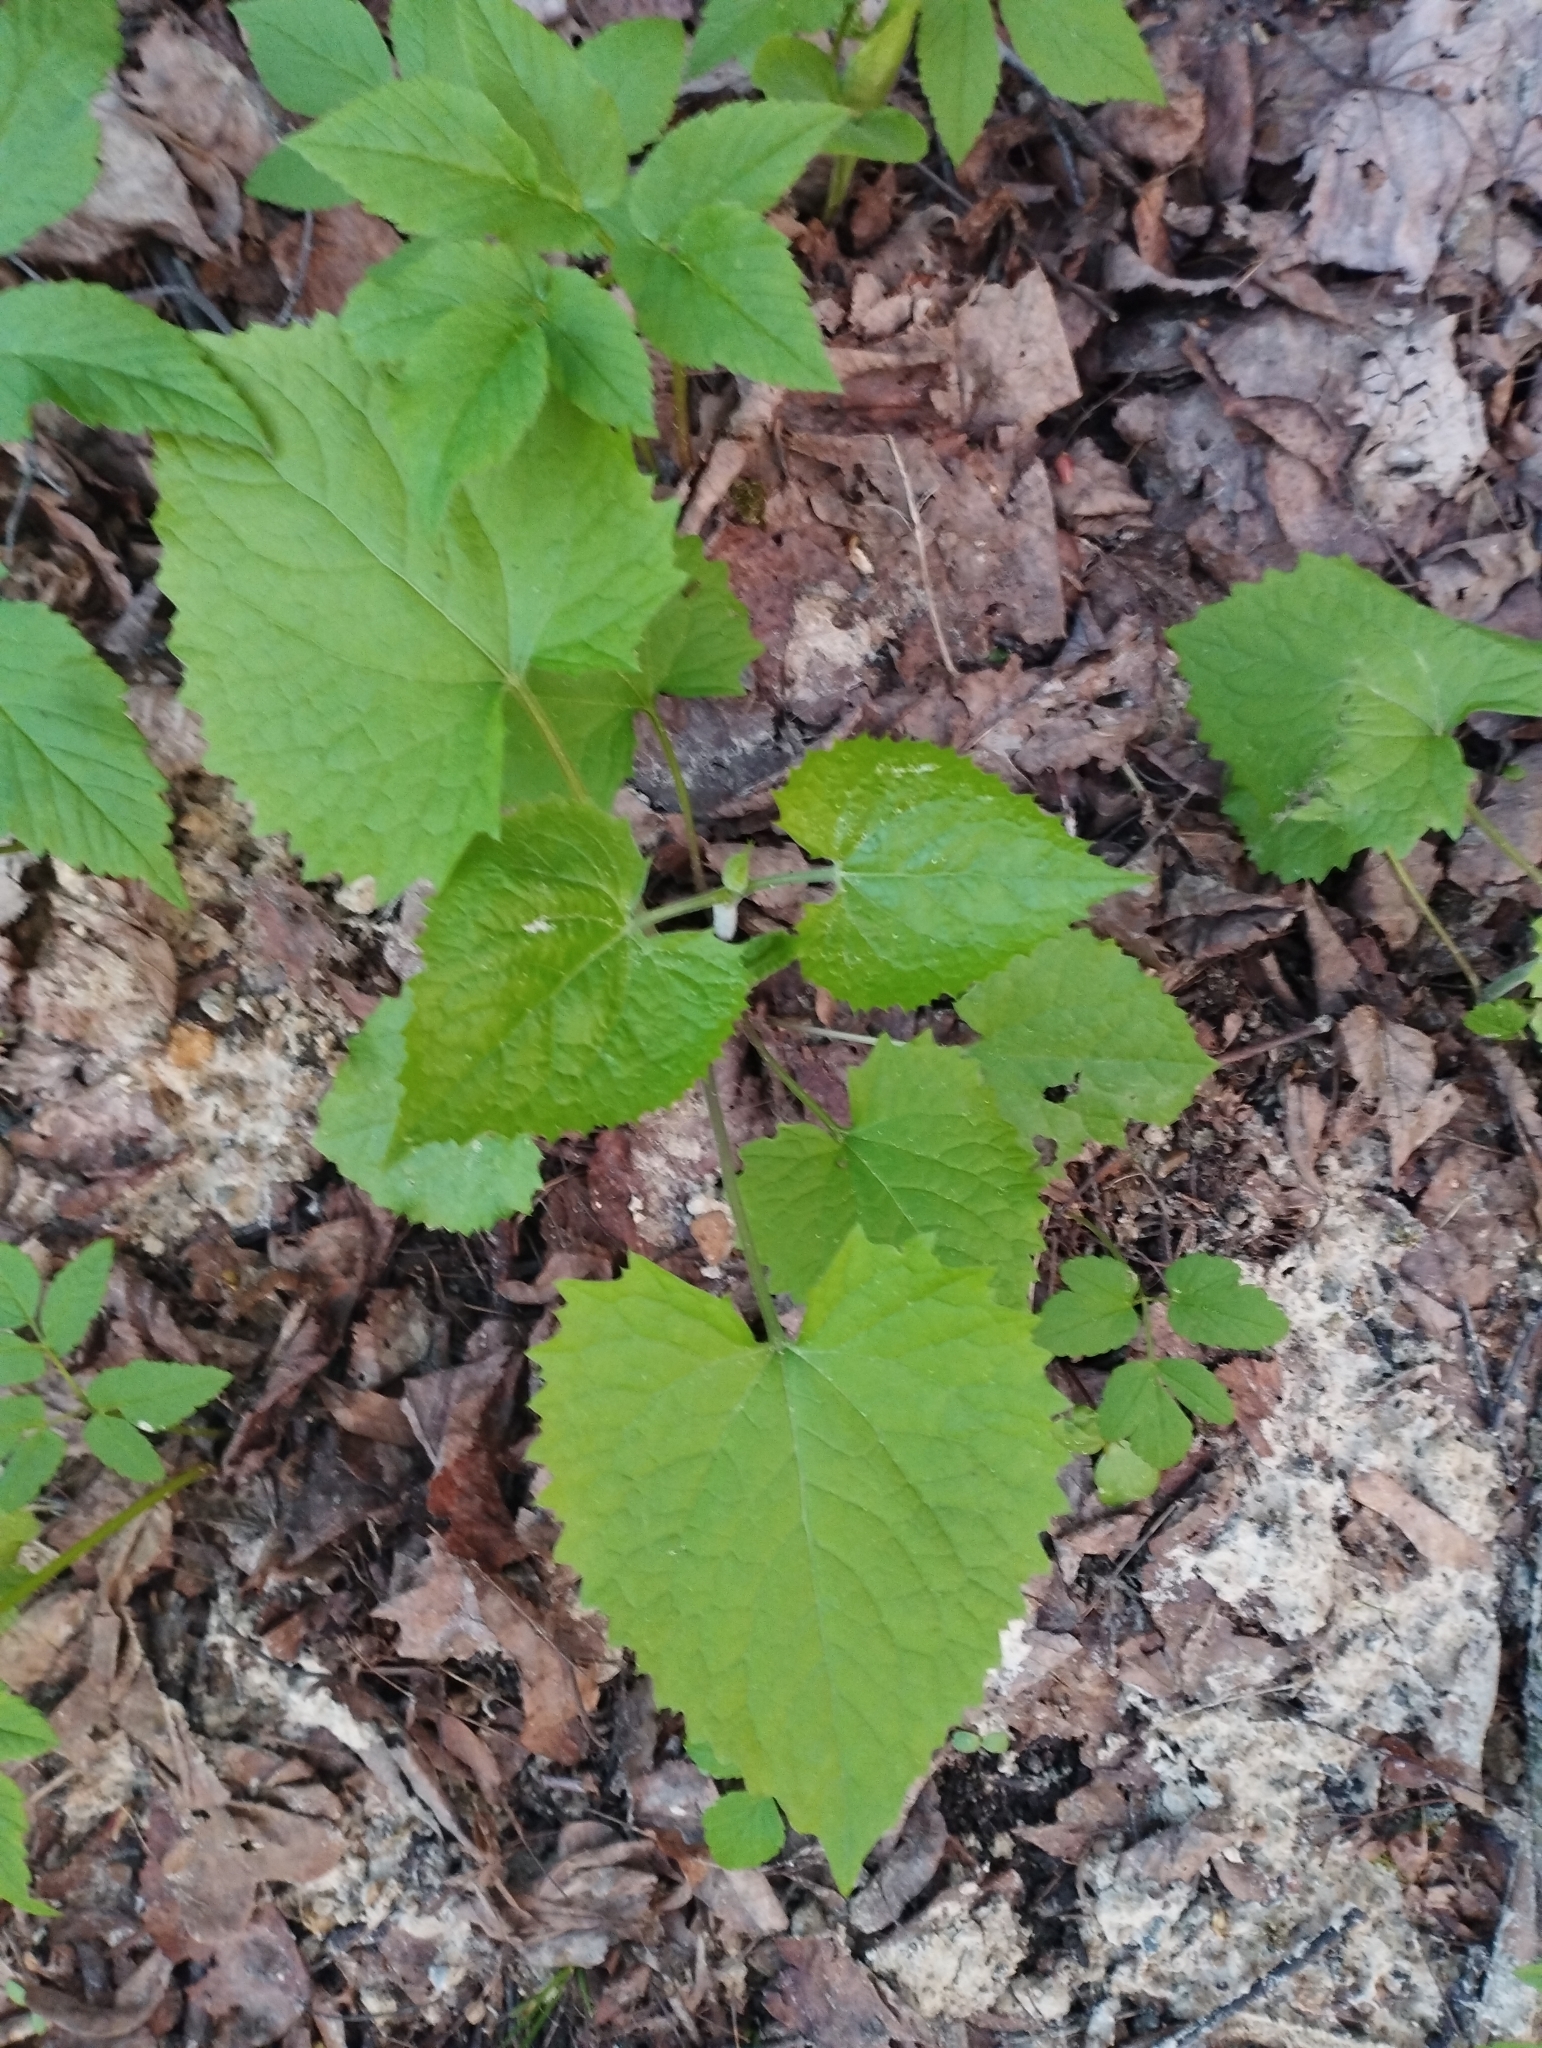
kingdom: Plantae
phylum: Tracheophyta
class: Magnoliopsida
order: Brassicales
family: Brassicaceae
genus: Lunaria
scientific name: Lunaria rediviva
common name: Perennial honesty
